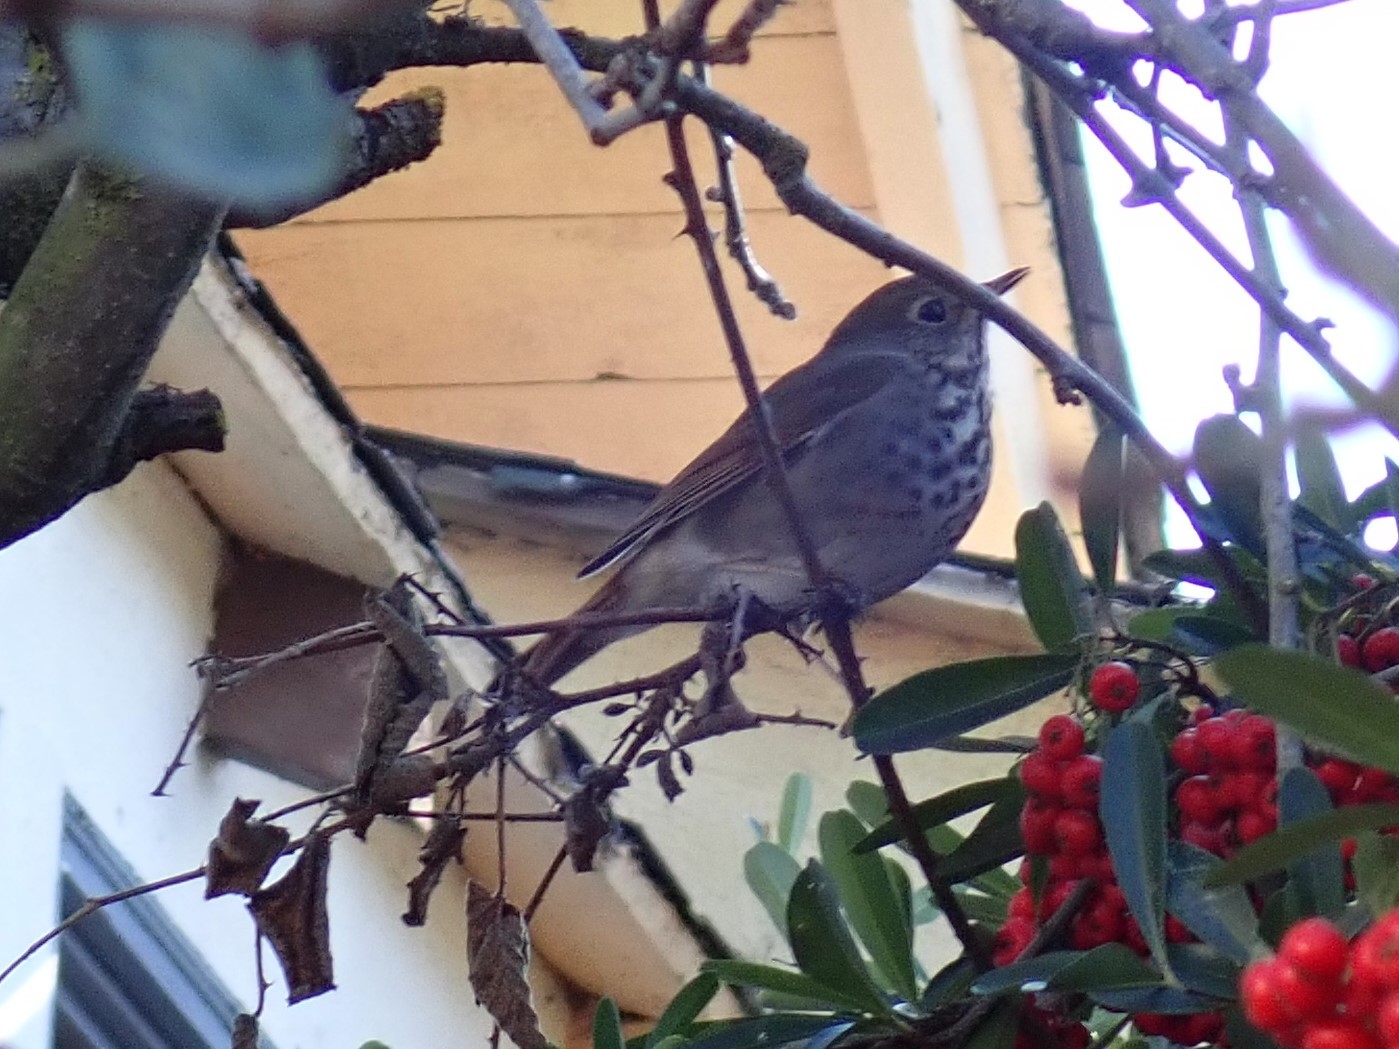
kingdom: Animalia
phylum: Chordata
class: Aves
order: Passeriformes
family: Turdidae
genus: Catharus
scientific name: Catharus guttatus
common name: Hermit thrush
